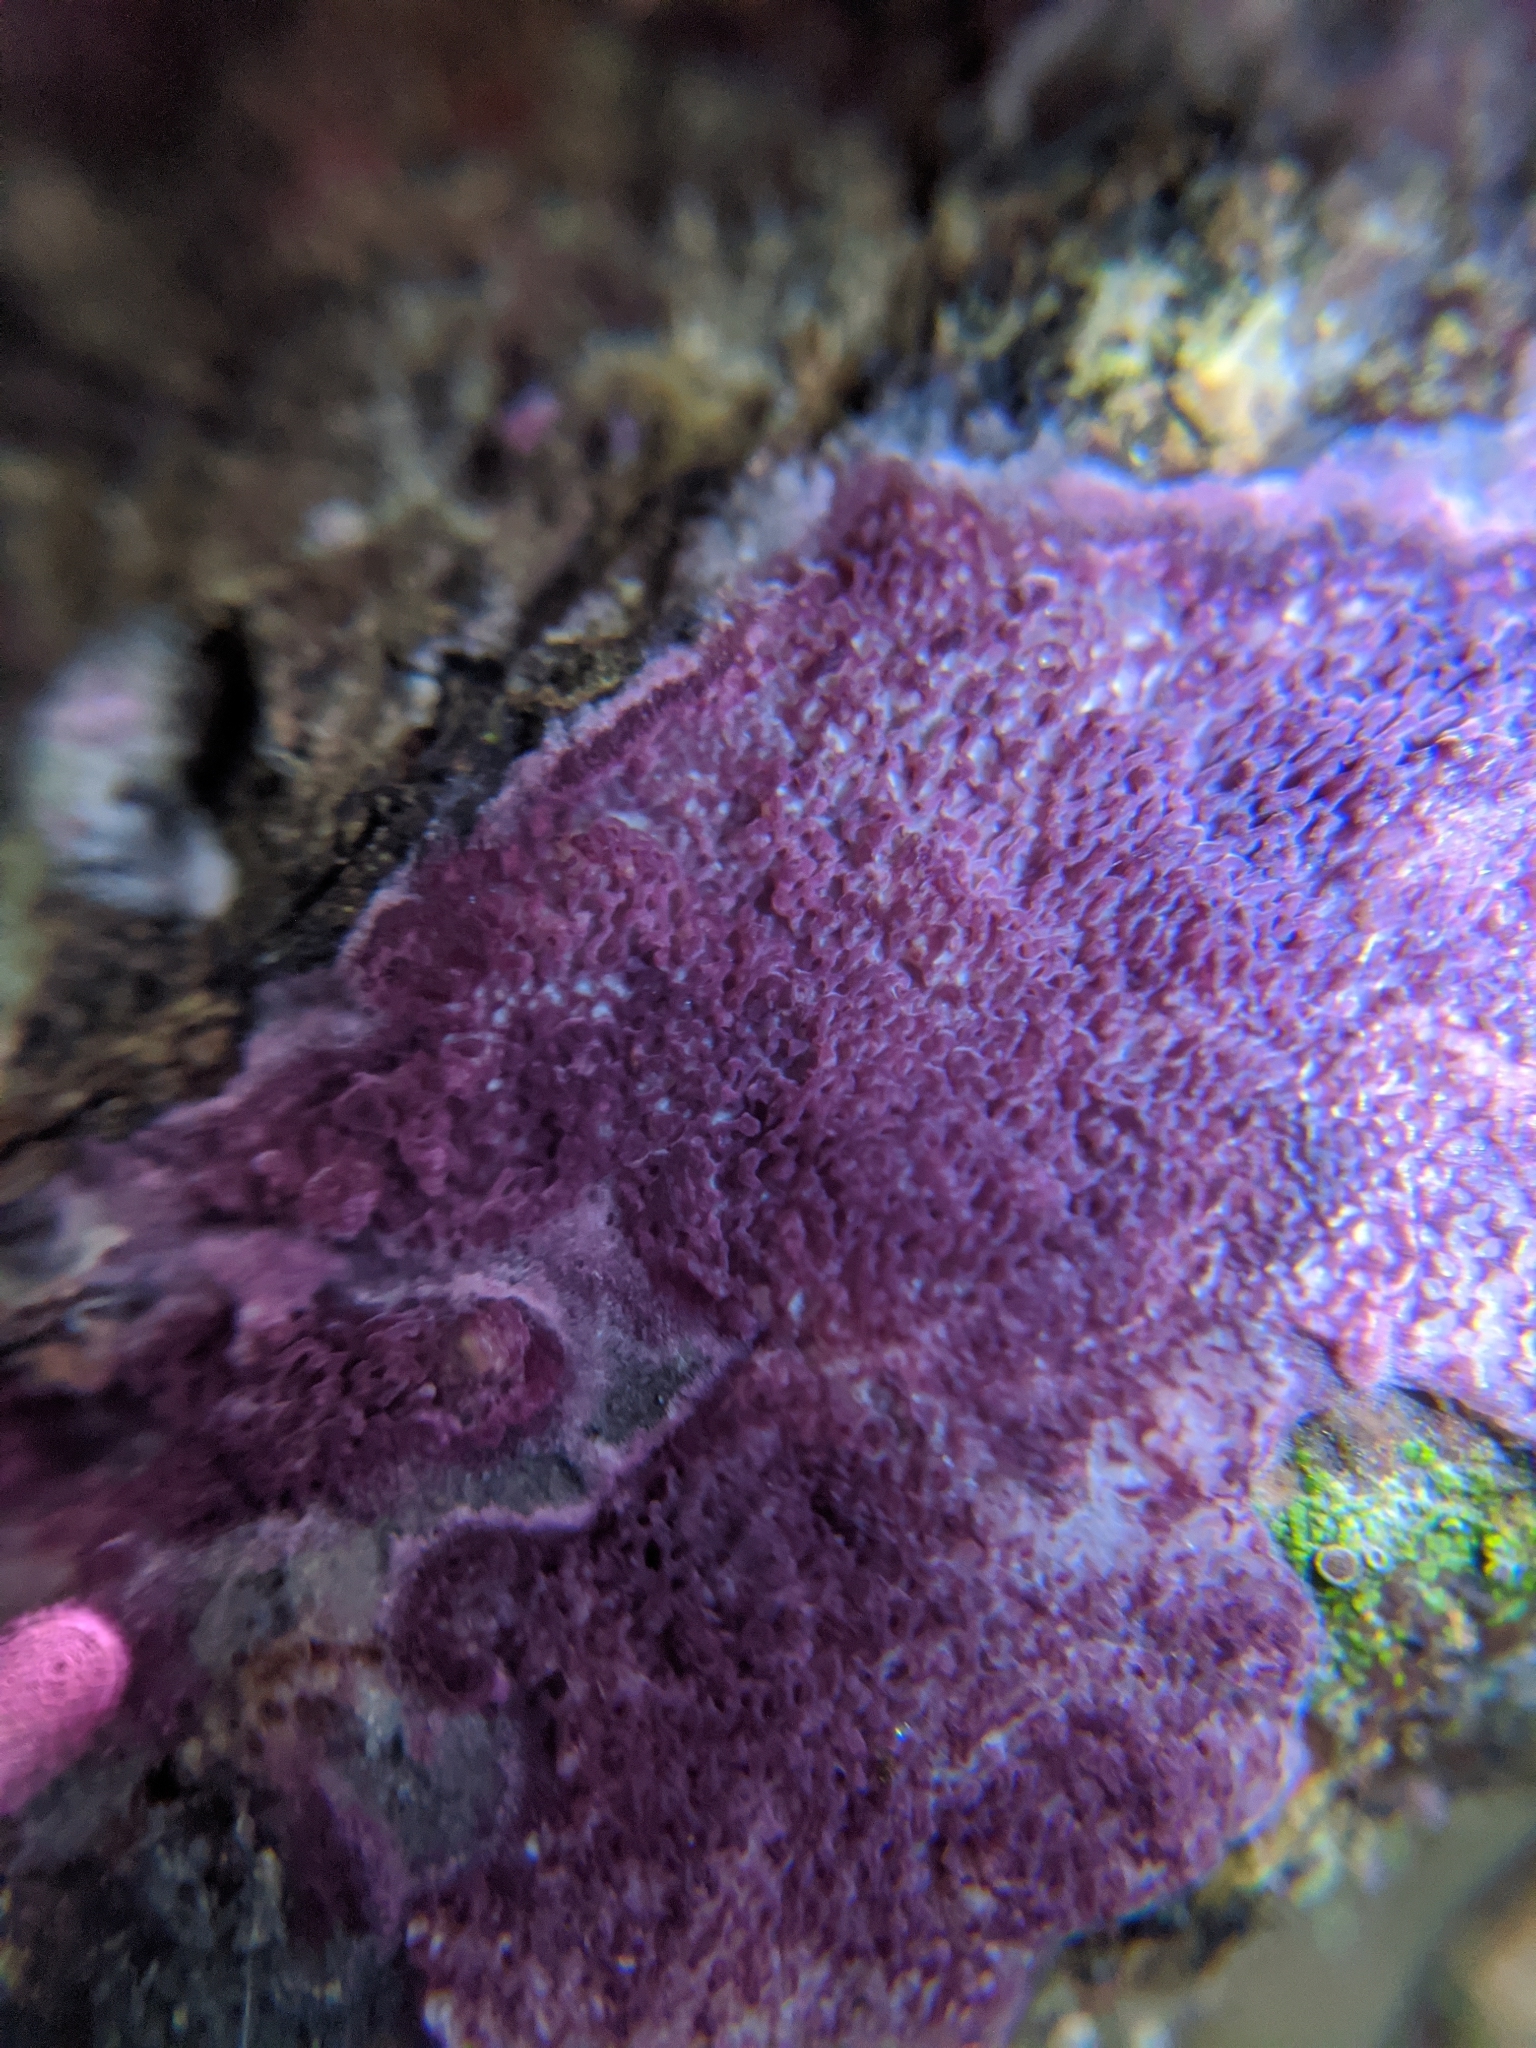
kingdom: Fungi
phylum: Basidiomycota
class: Agaricomycetes
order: Polyporales
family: Irpicaceae
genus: Byssomerulius
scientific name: Byssomerulius psittacinus
